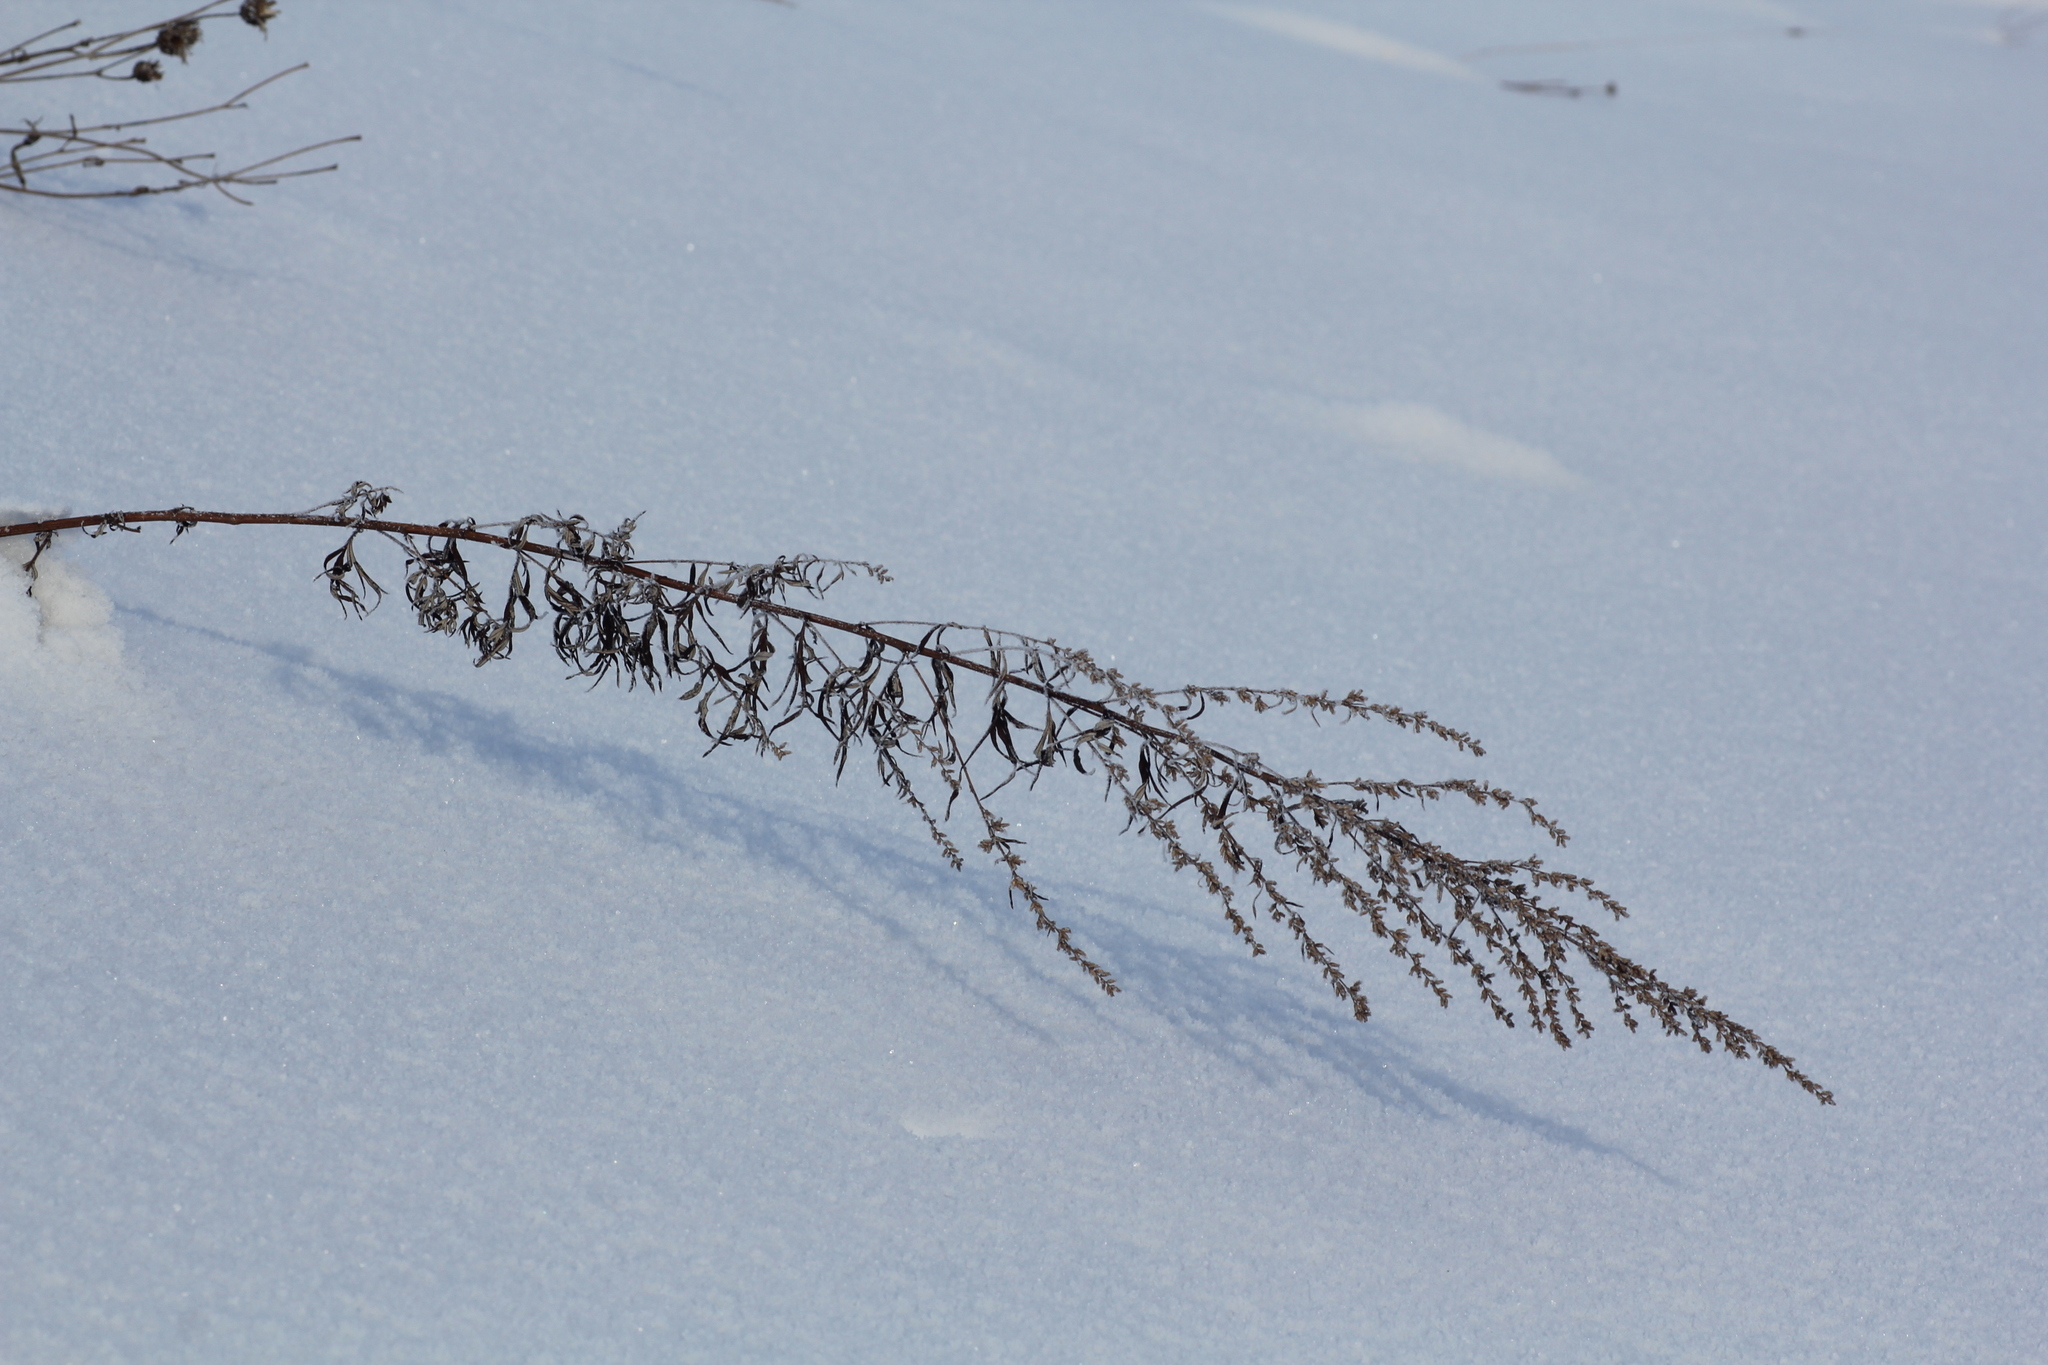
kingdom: Plantae
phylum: Tracheophyta
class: Magnoliopsida
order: Asterales
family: Asteraceae
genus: Artemisia
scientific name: Artemisia vulgaris
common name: Mugwort
